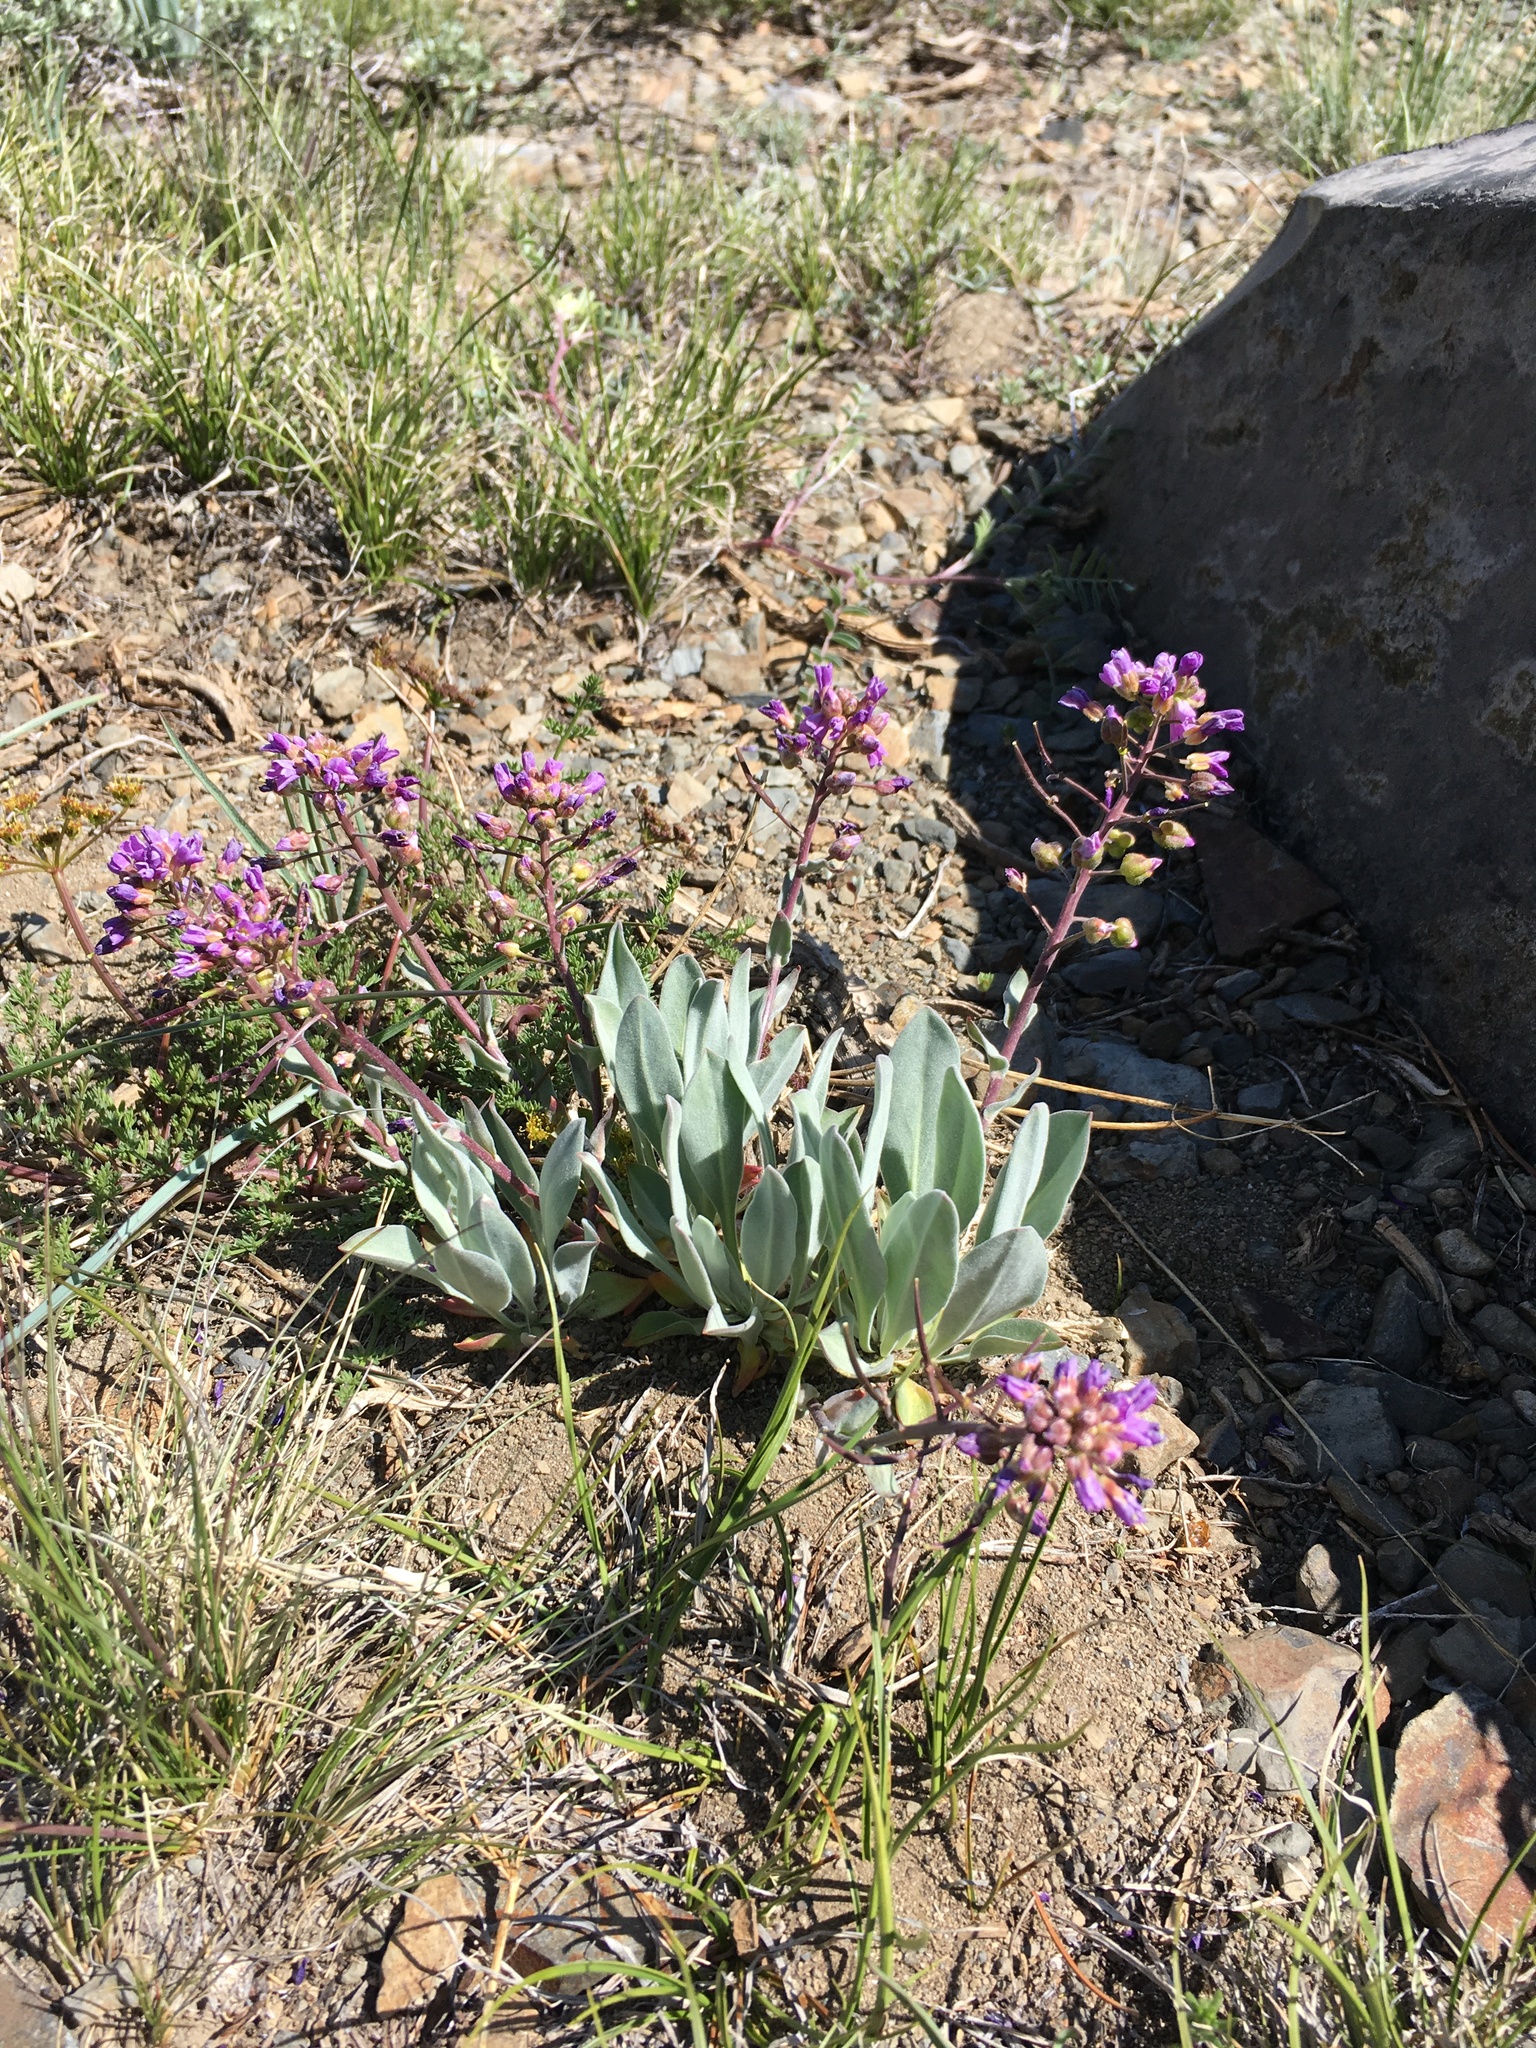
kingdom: Plantae
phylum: Tracheophyta
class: Magnoliopsida
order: Brassicales
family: Brassicaceae
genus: Phoenicaulis
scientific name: Phoenicaulis cheiranthoides
